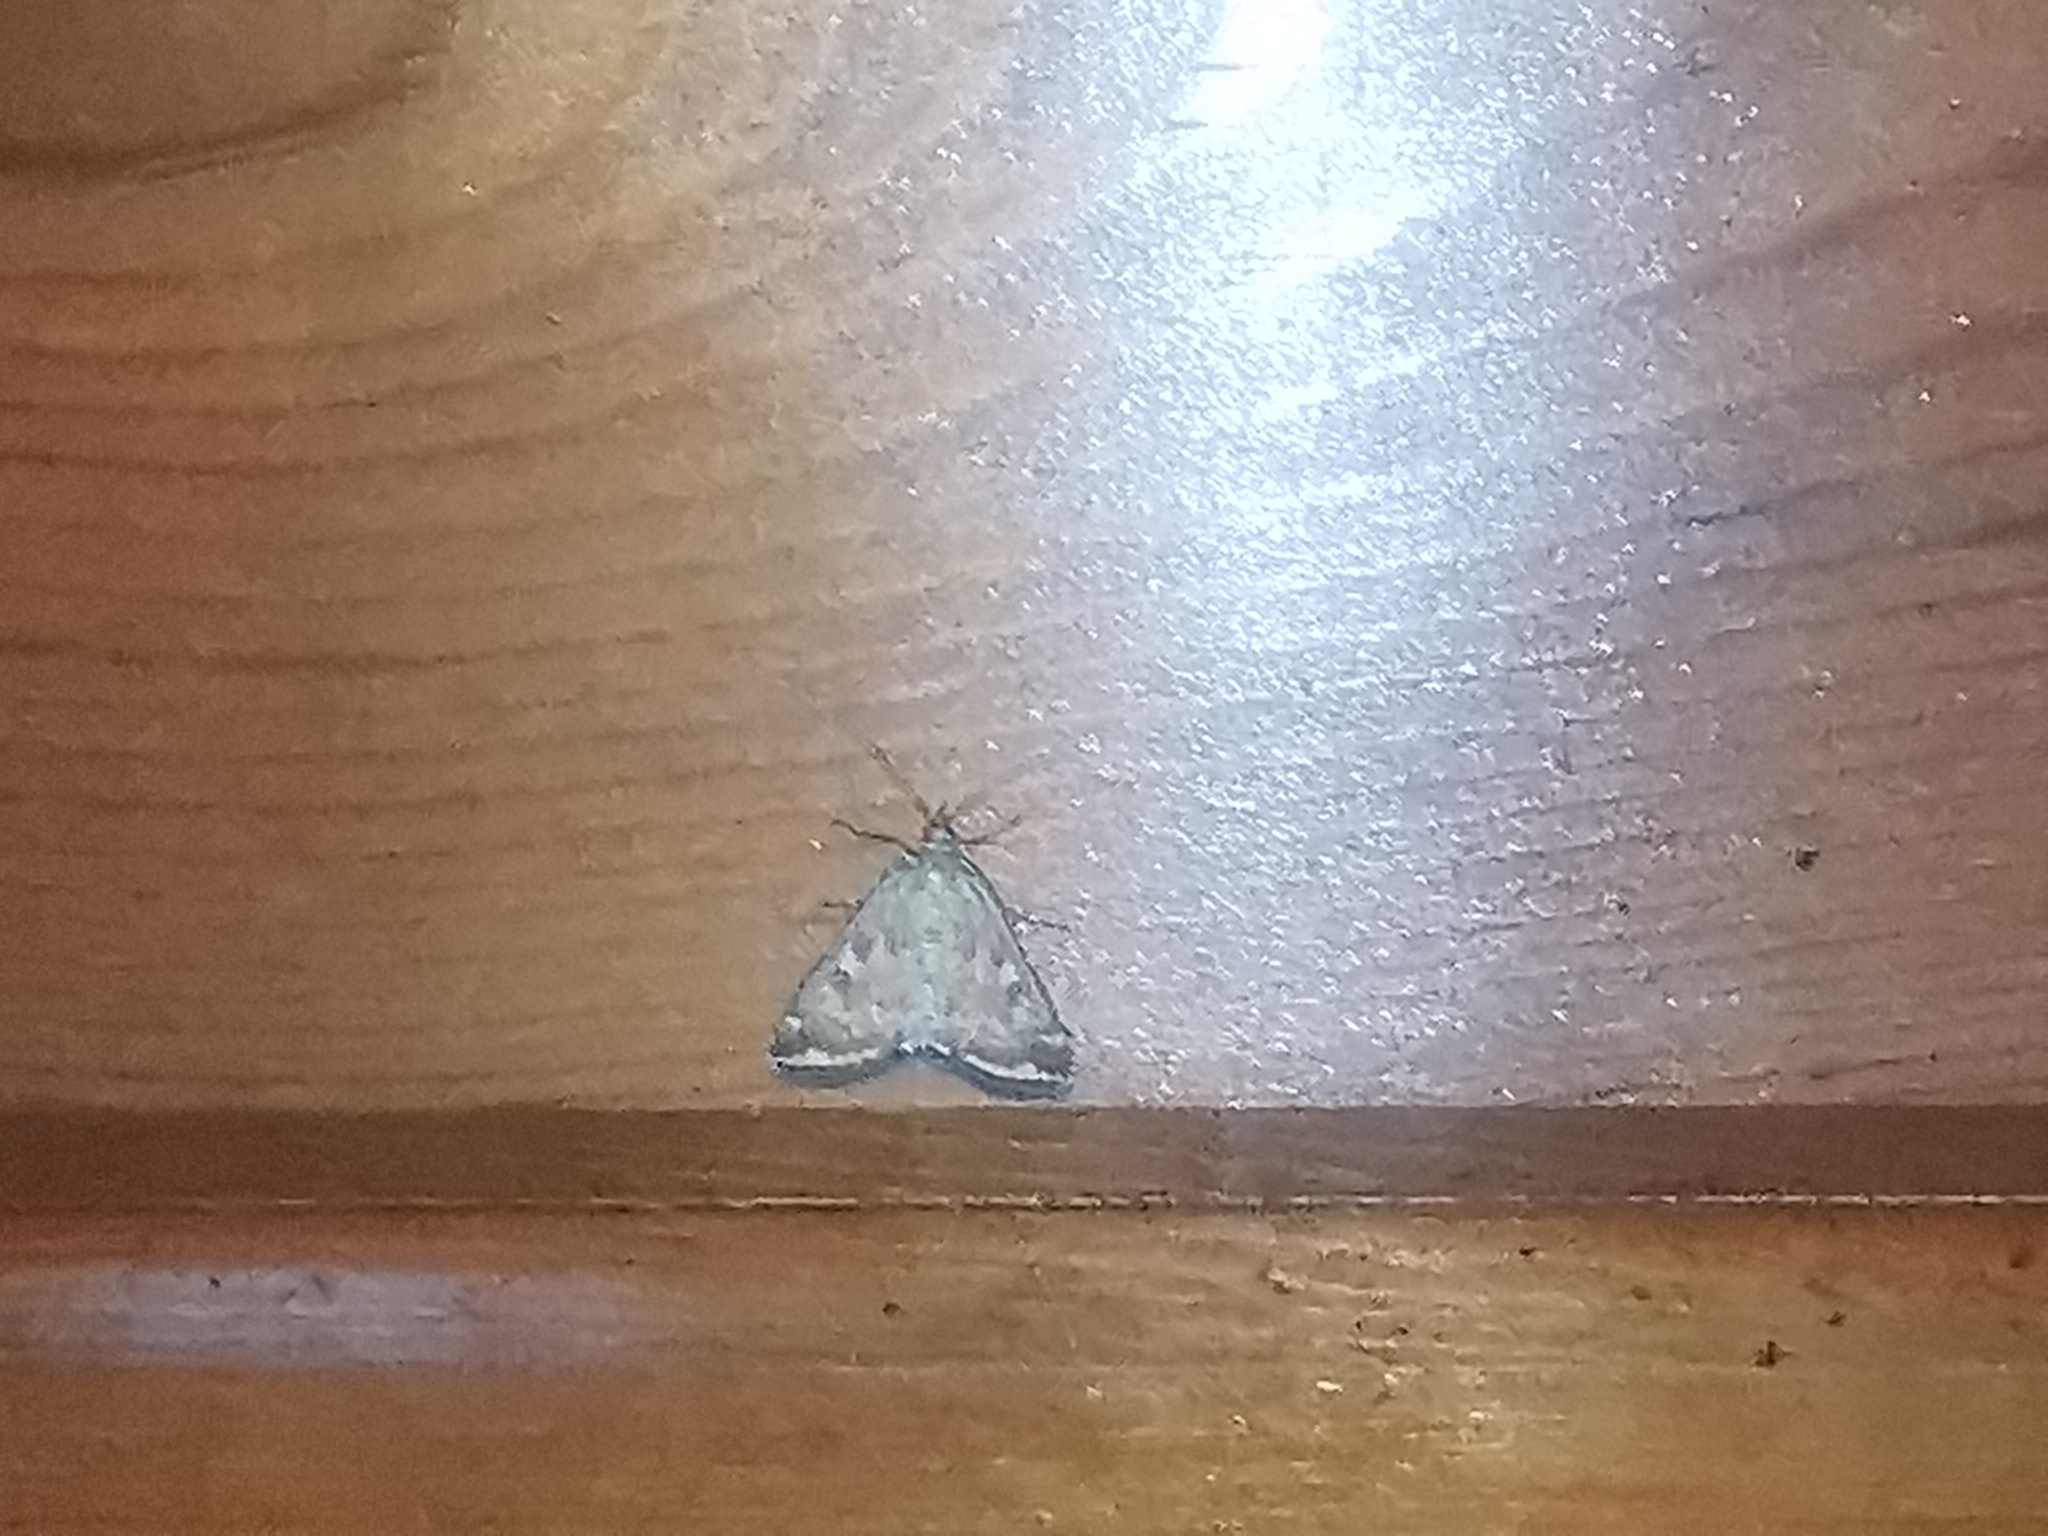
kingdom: Animalia
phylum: Arthropoda
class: Insecta
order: Lepidoptera
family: Crambidae
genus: Loxostege
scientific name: Loxostege sticticalis
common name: Crambid moth
